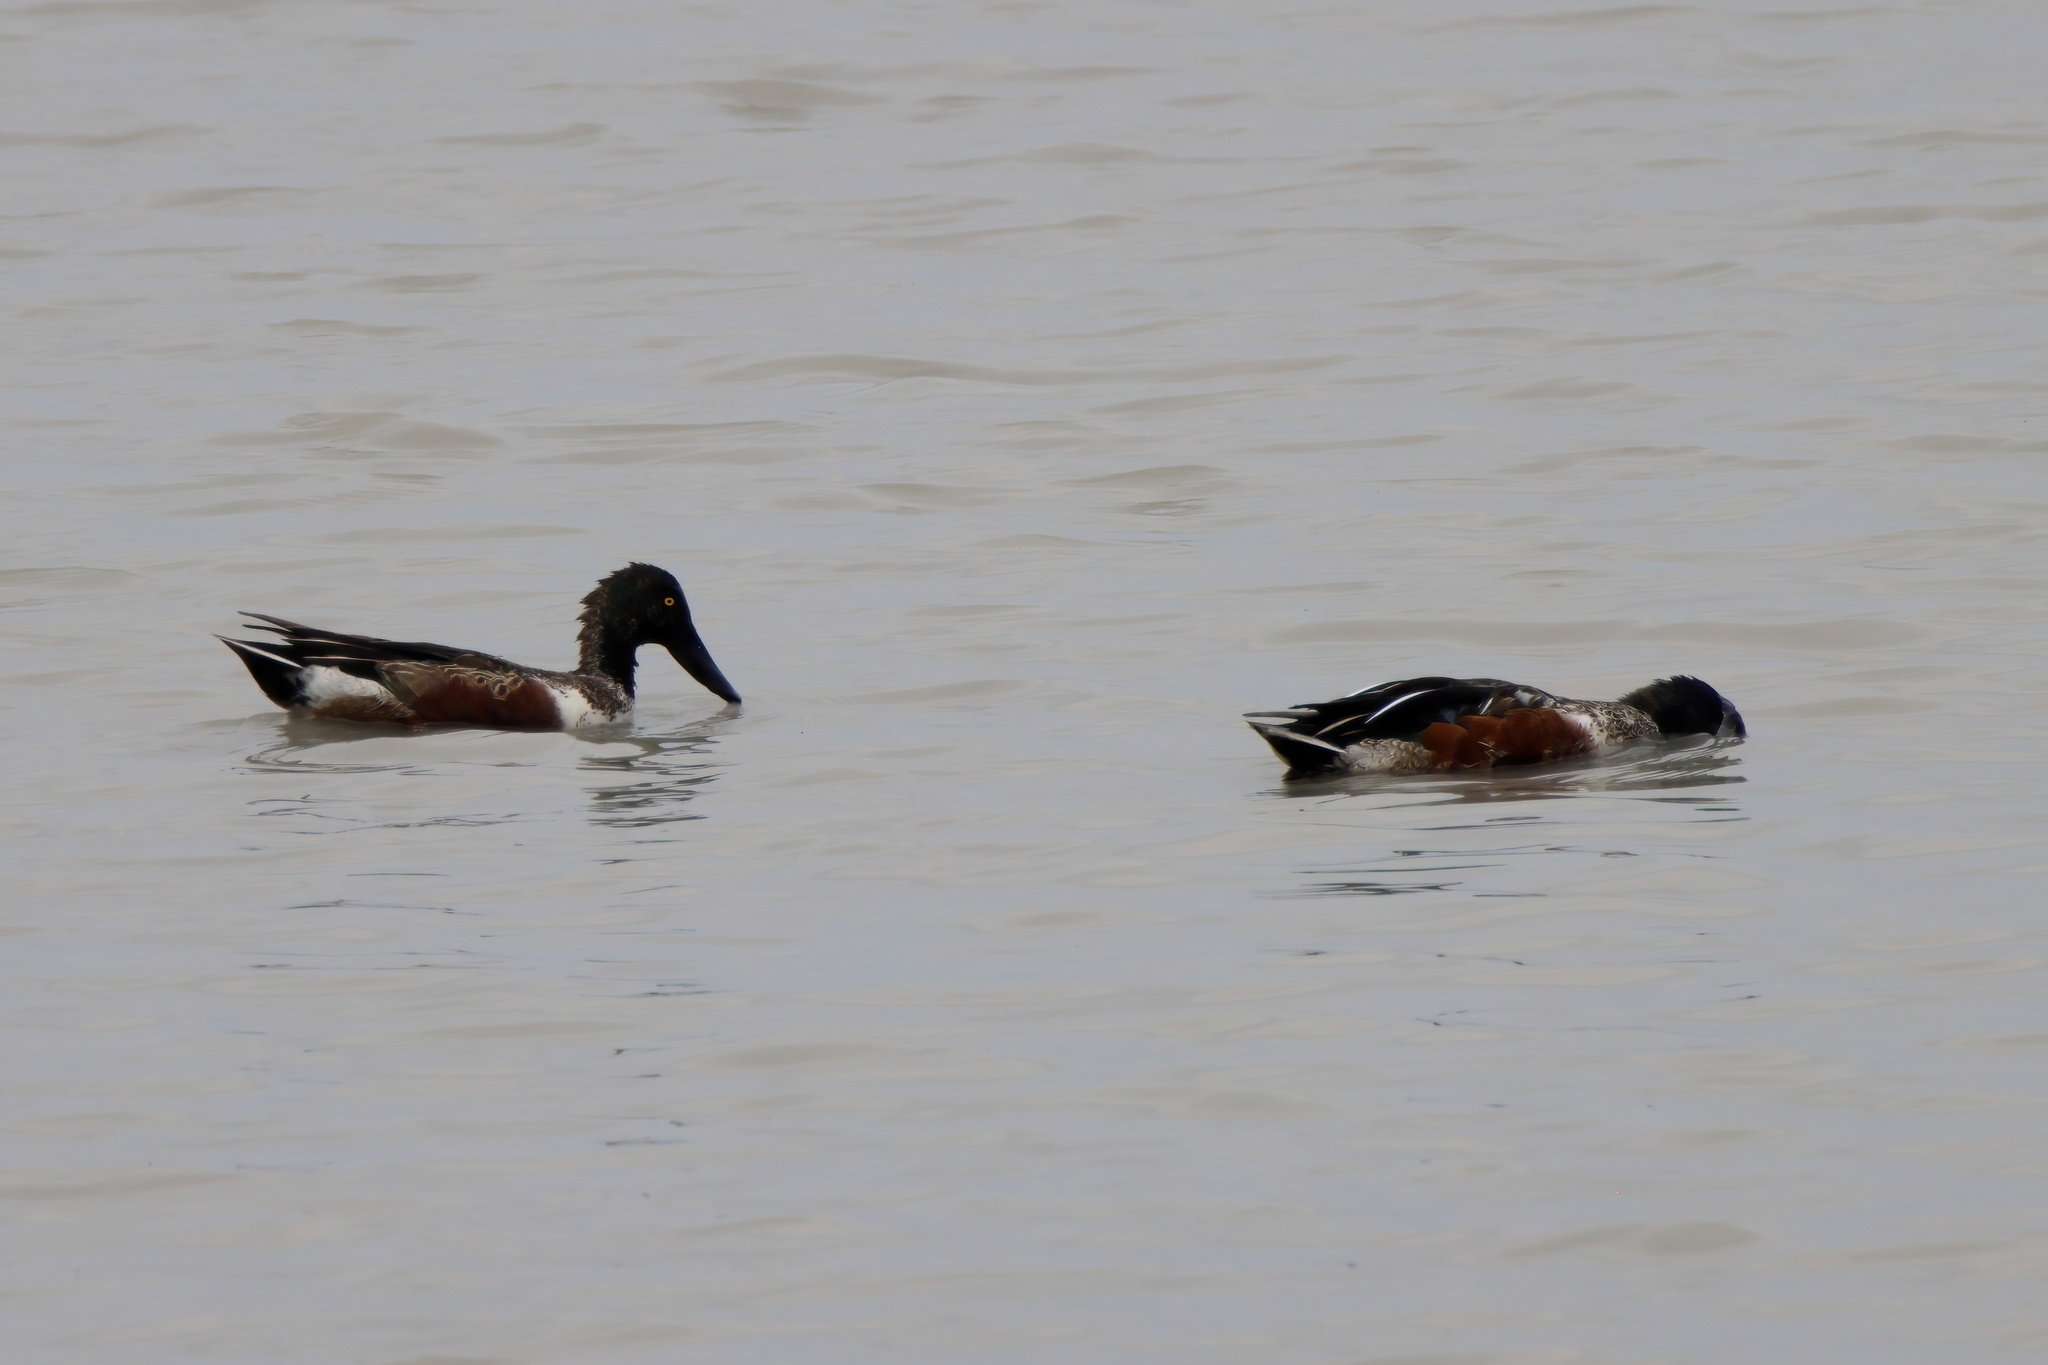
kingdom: Animalia
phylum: Chordata
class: Aves
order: Anseriformes
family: Anatidae
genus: Spatula
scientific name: Spatula clypeata
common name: Northern shoveler
